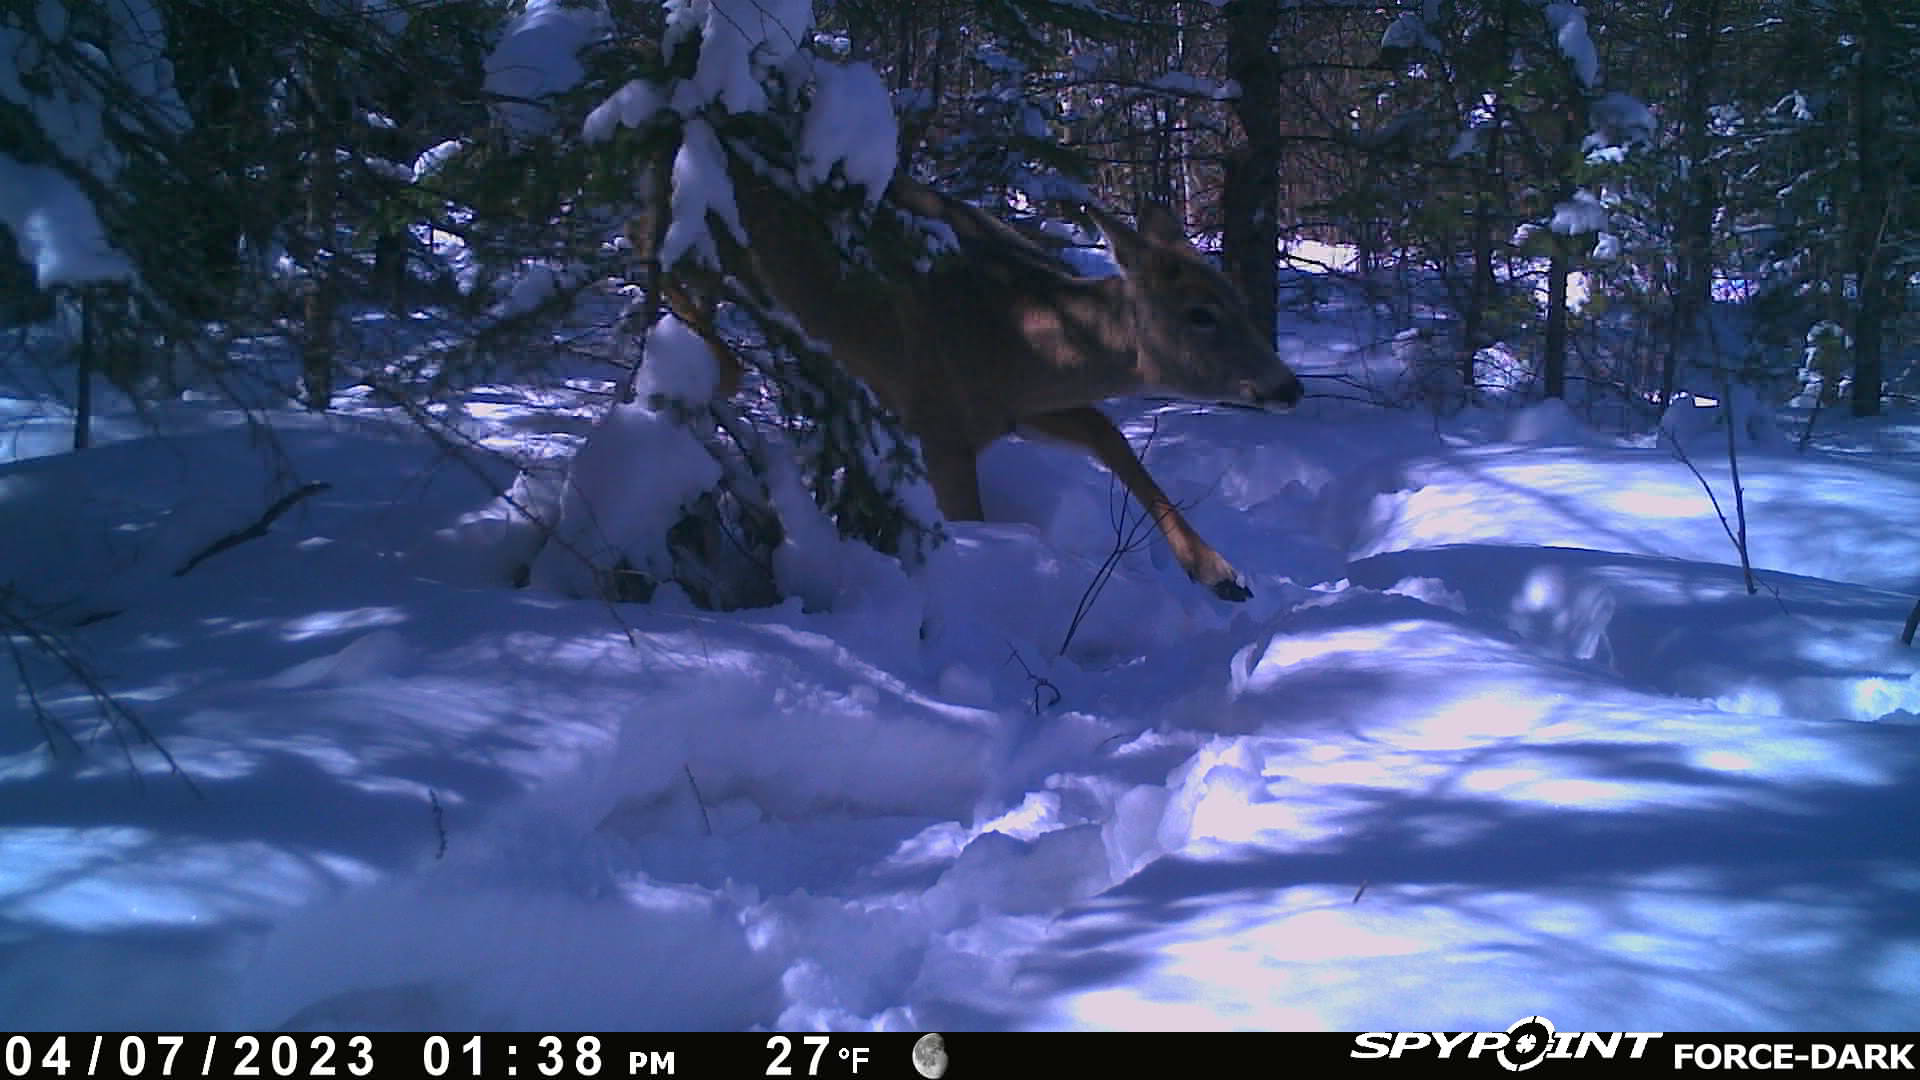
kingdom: Animalia
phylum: Chordata
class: Mammalia
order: Artiodactyla
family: Cervidae
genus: Odocoileus
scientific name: Odocoileus virginianus
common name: White-tailed deer
